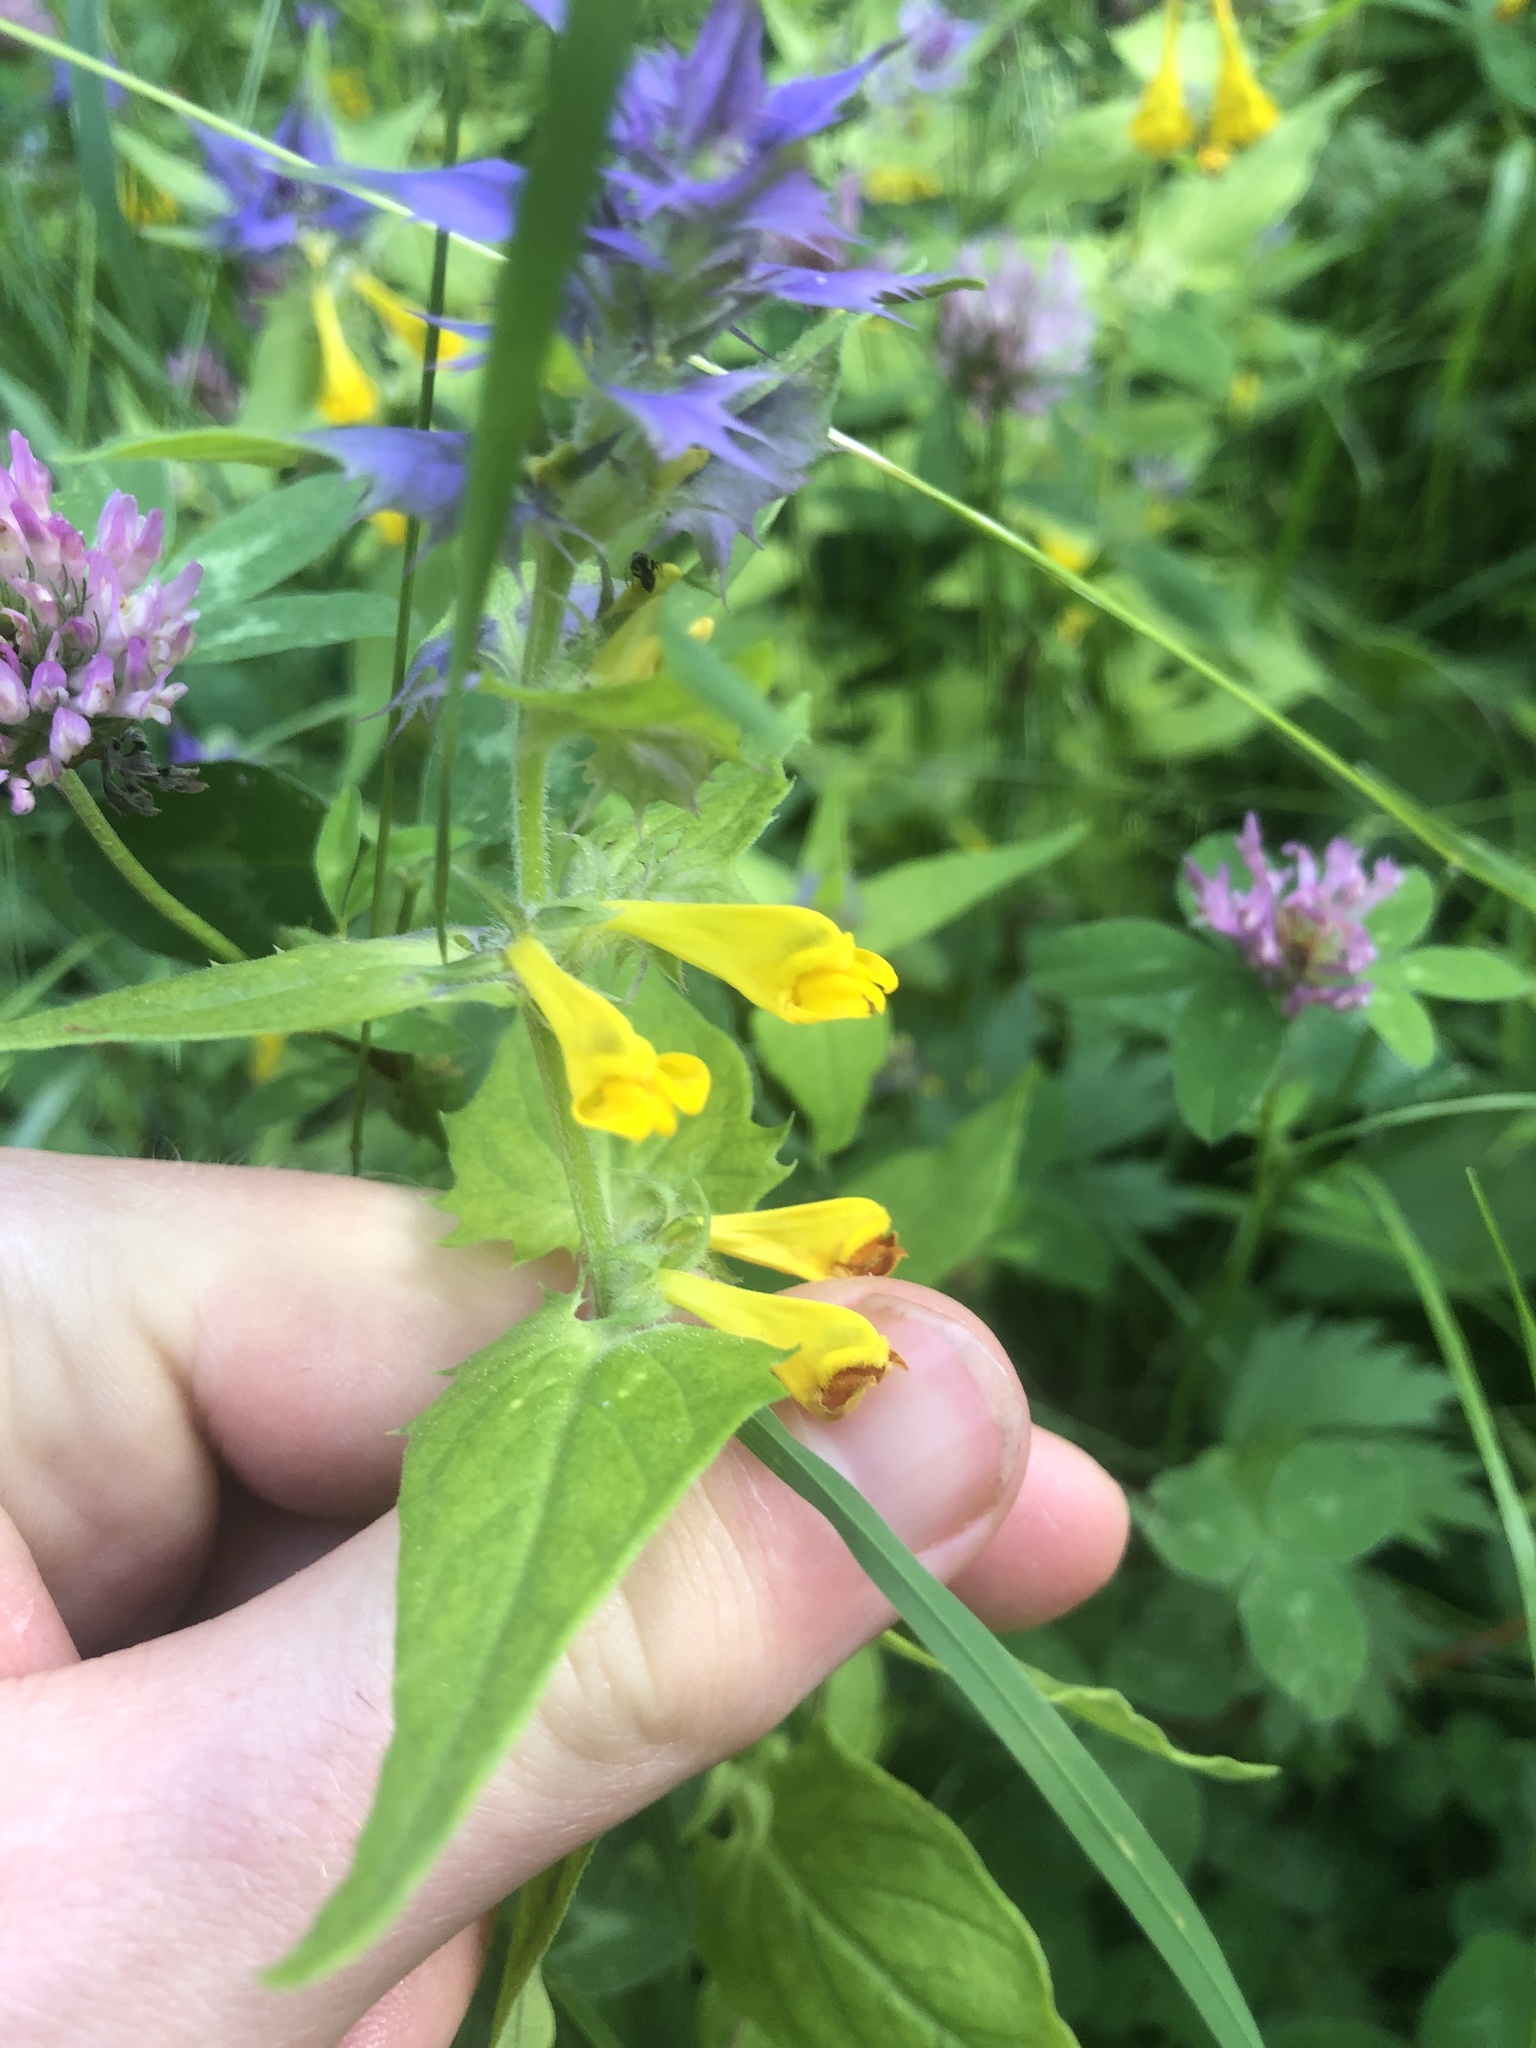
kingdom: Plantae
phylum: Tracheophyta
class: Magnoliopsida
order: Lamiales
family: Orobanchaceae
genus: Melampyrum
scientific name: Melampyrum nemorosum
